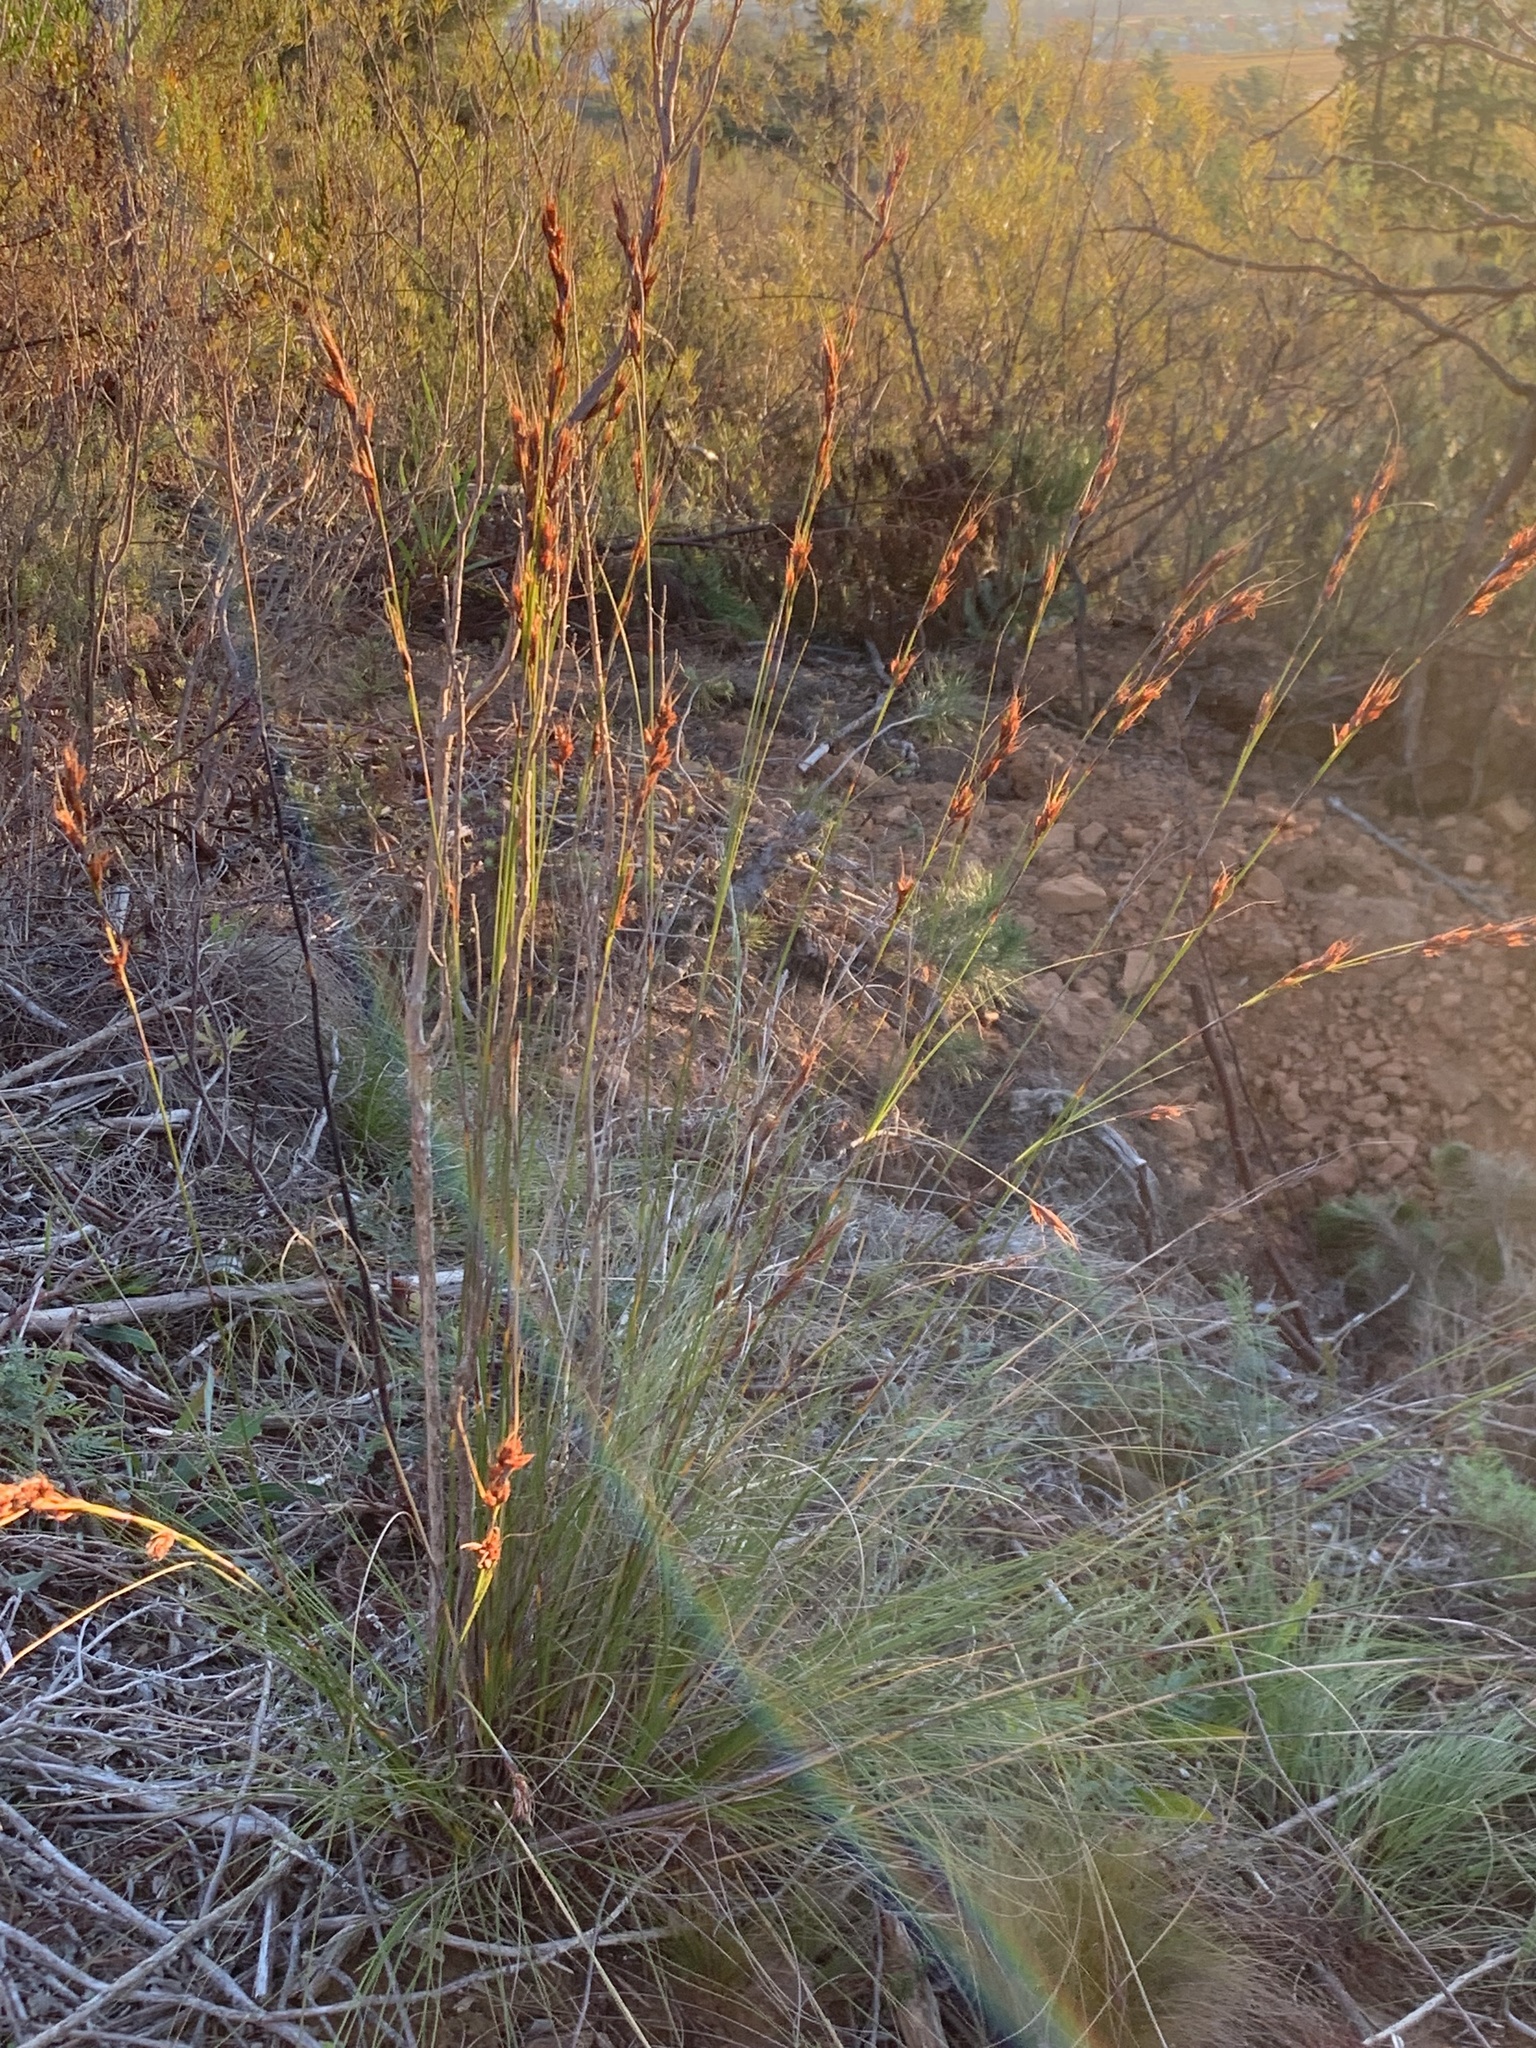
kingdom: Plantae
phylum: Tracheophyta
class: Liliopsida
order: Poales
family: Cyperaceae
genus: Tetraria
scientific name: Tetraria ustulata
